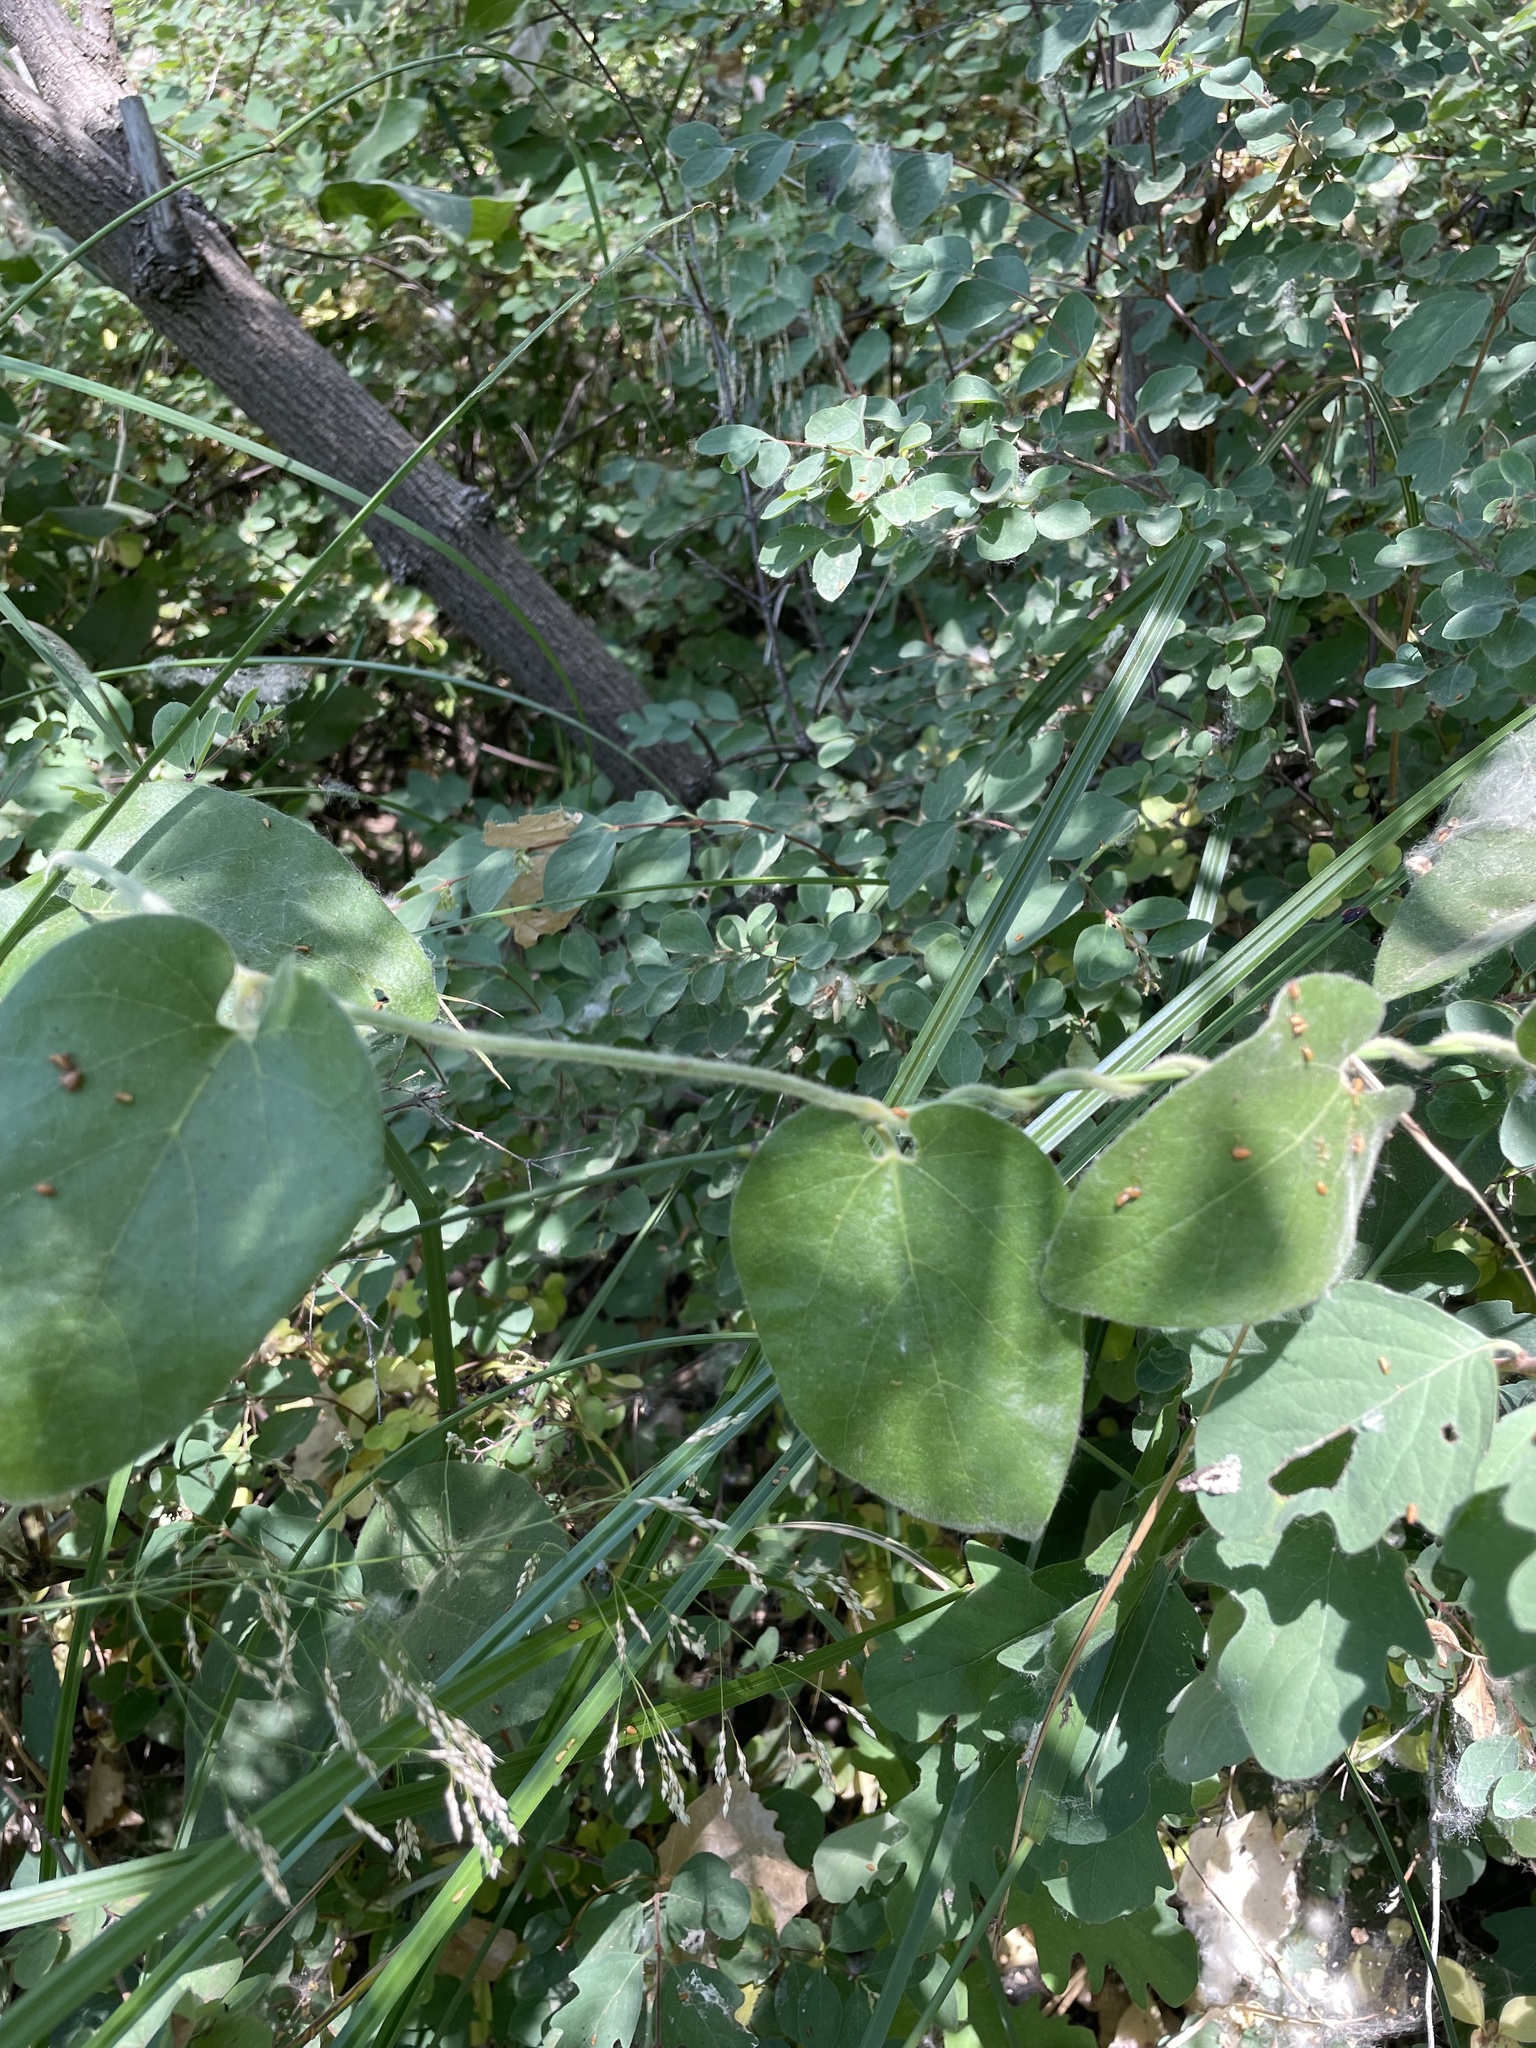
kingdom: Plantae
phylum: Tracheophyta
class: Magnoliopsida
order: Piperales
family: Aristolochiaceae
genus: Isotrema
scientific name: Isotrema californicum
